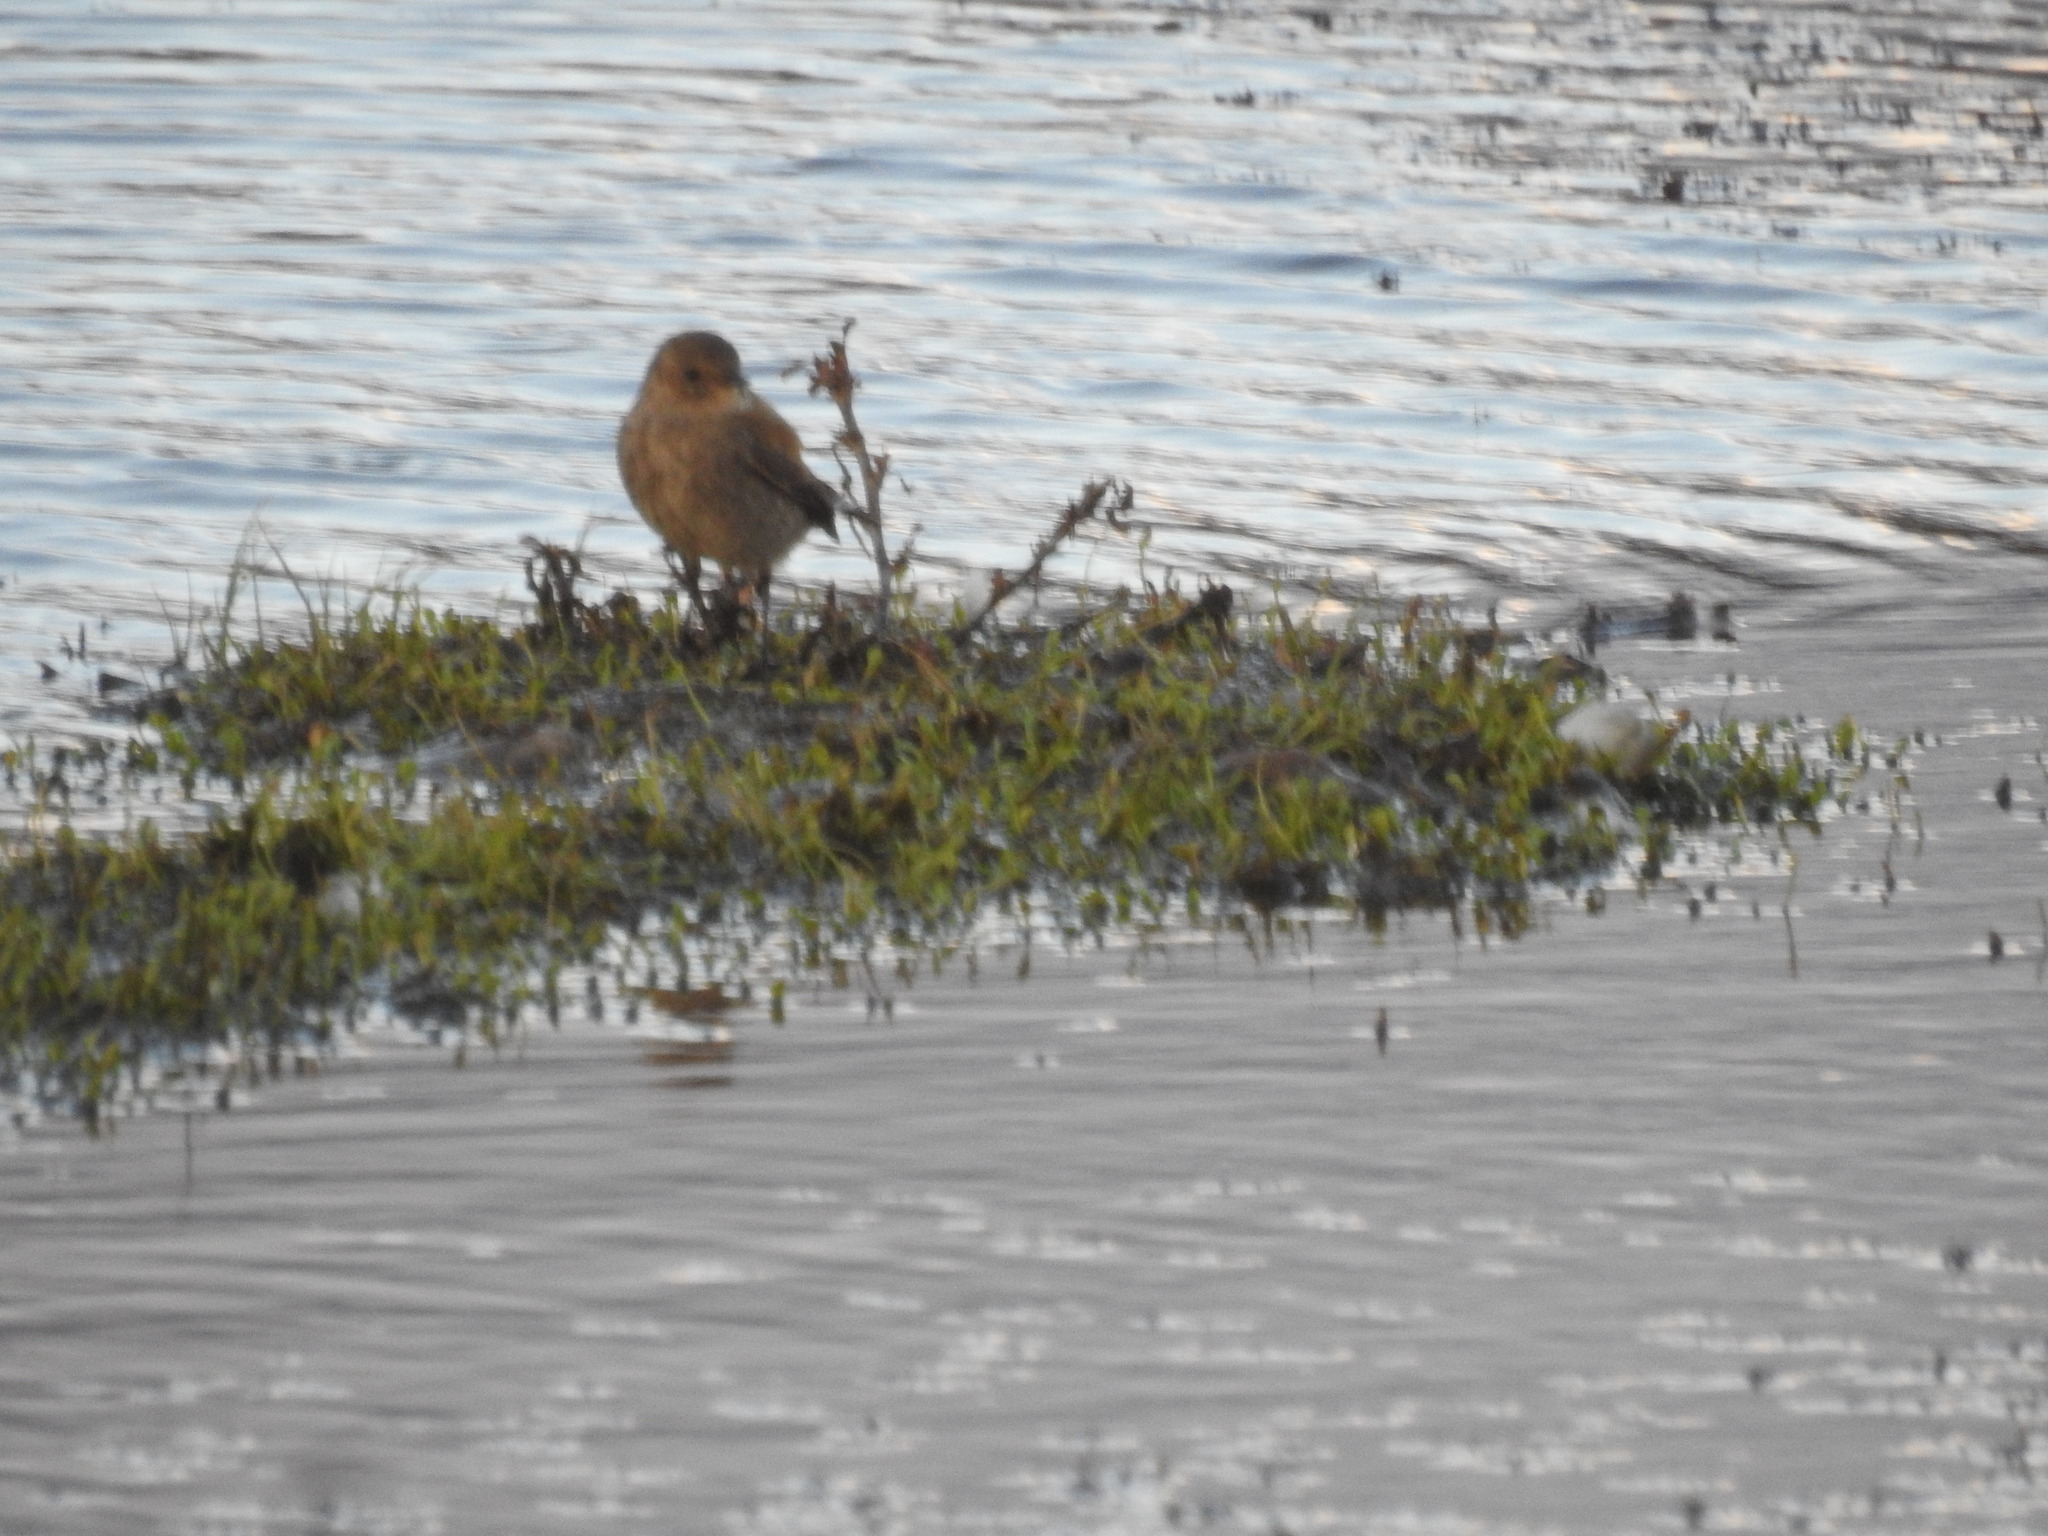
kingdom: Animalia
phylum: Chordata
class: Aves
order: Passeriformes
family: Tyrannidae
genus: Lessonia
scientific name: Lessonia rufa
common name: Austral negrito
